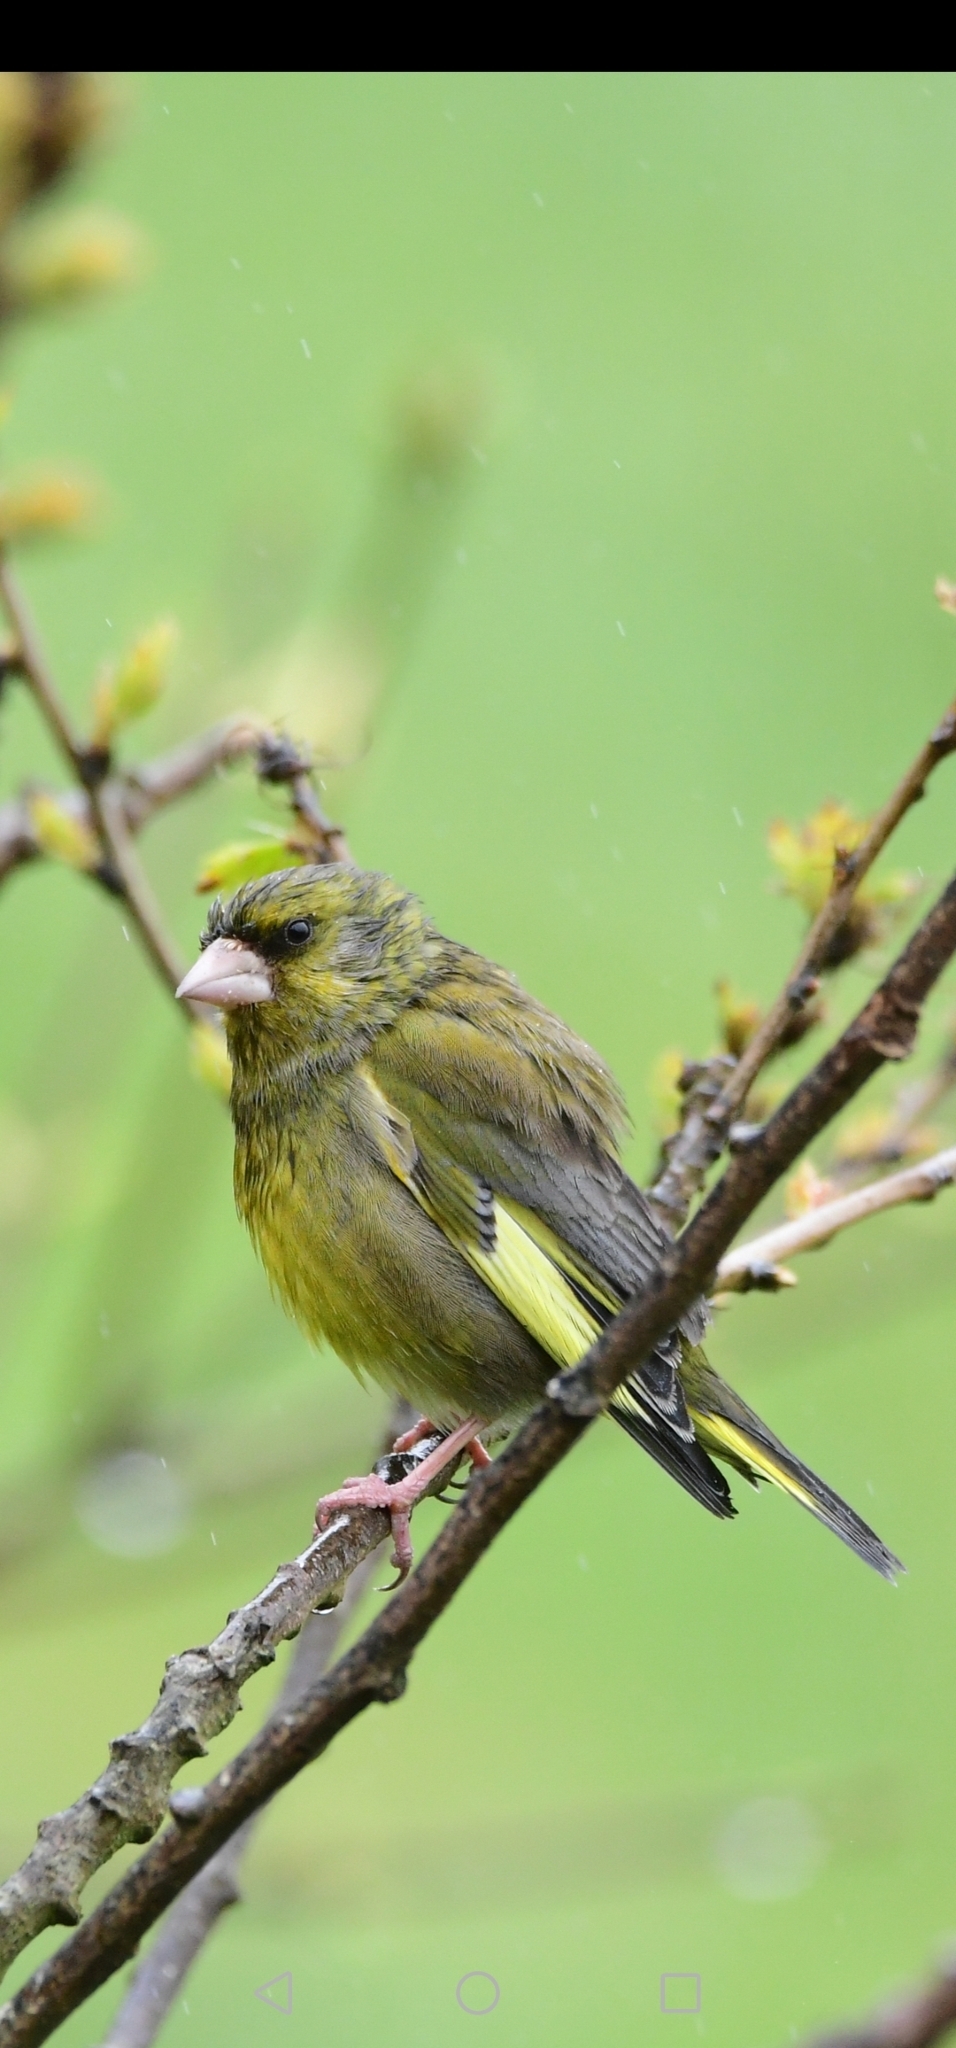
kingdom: Plantae
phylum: Tracheophyta
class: Liliopsida
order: Poales
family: Poaceae
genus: Chloris
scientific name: Chloris chloris
